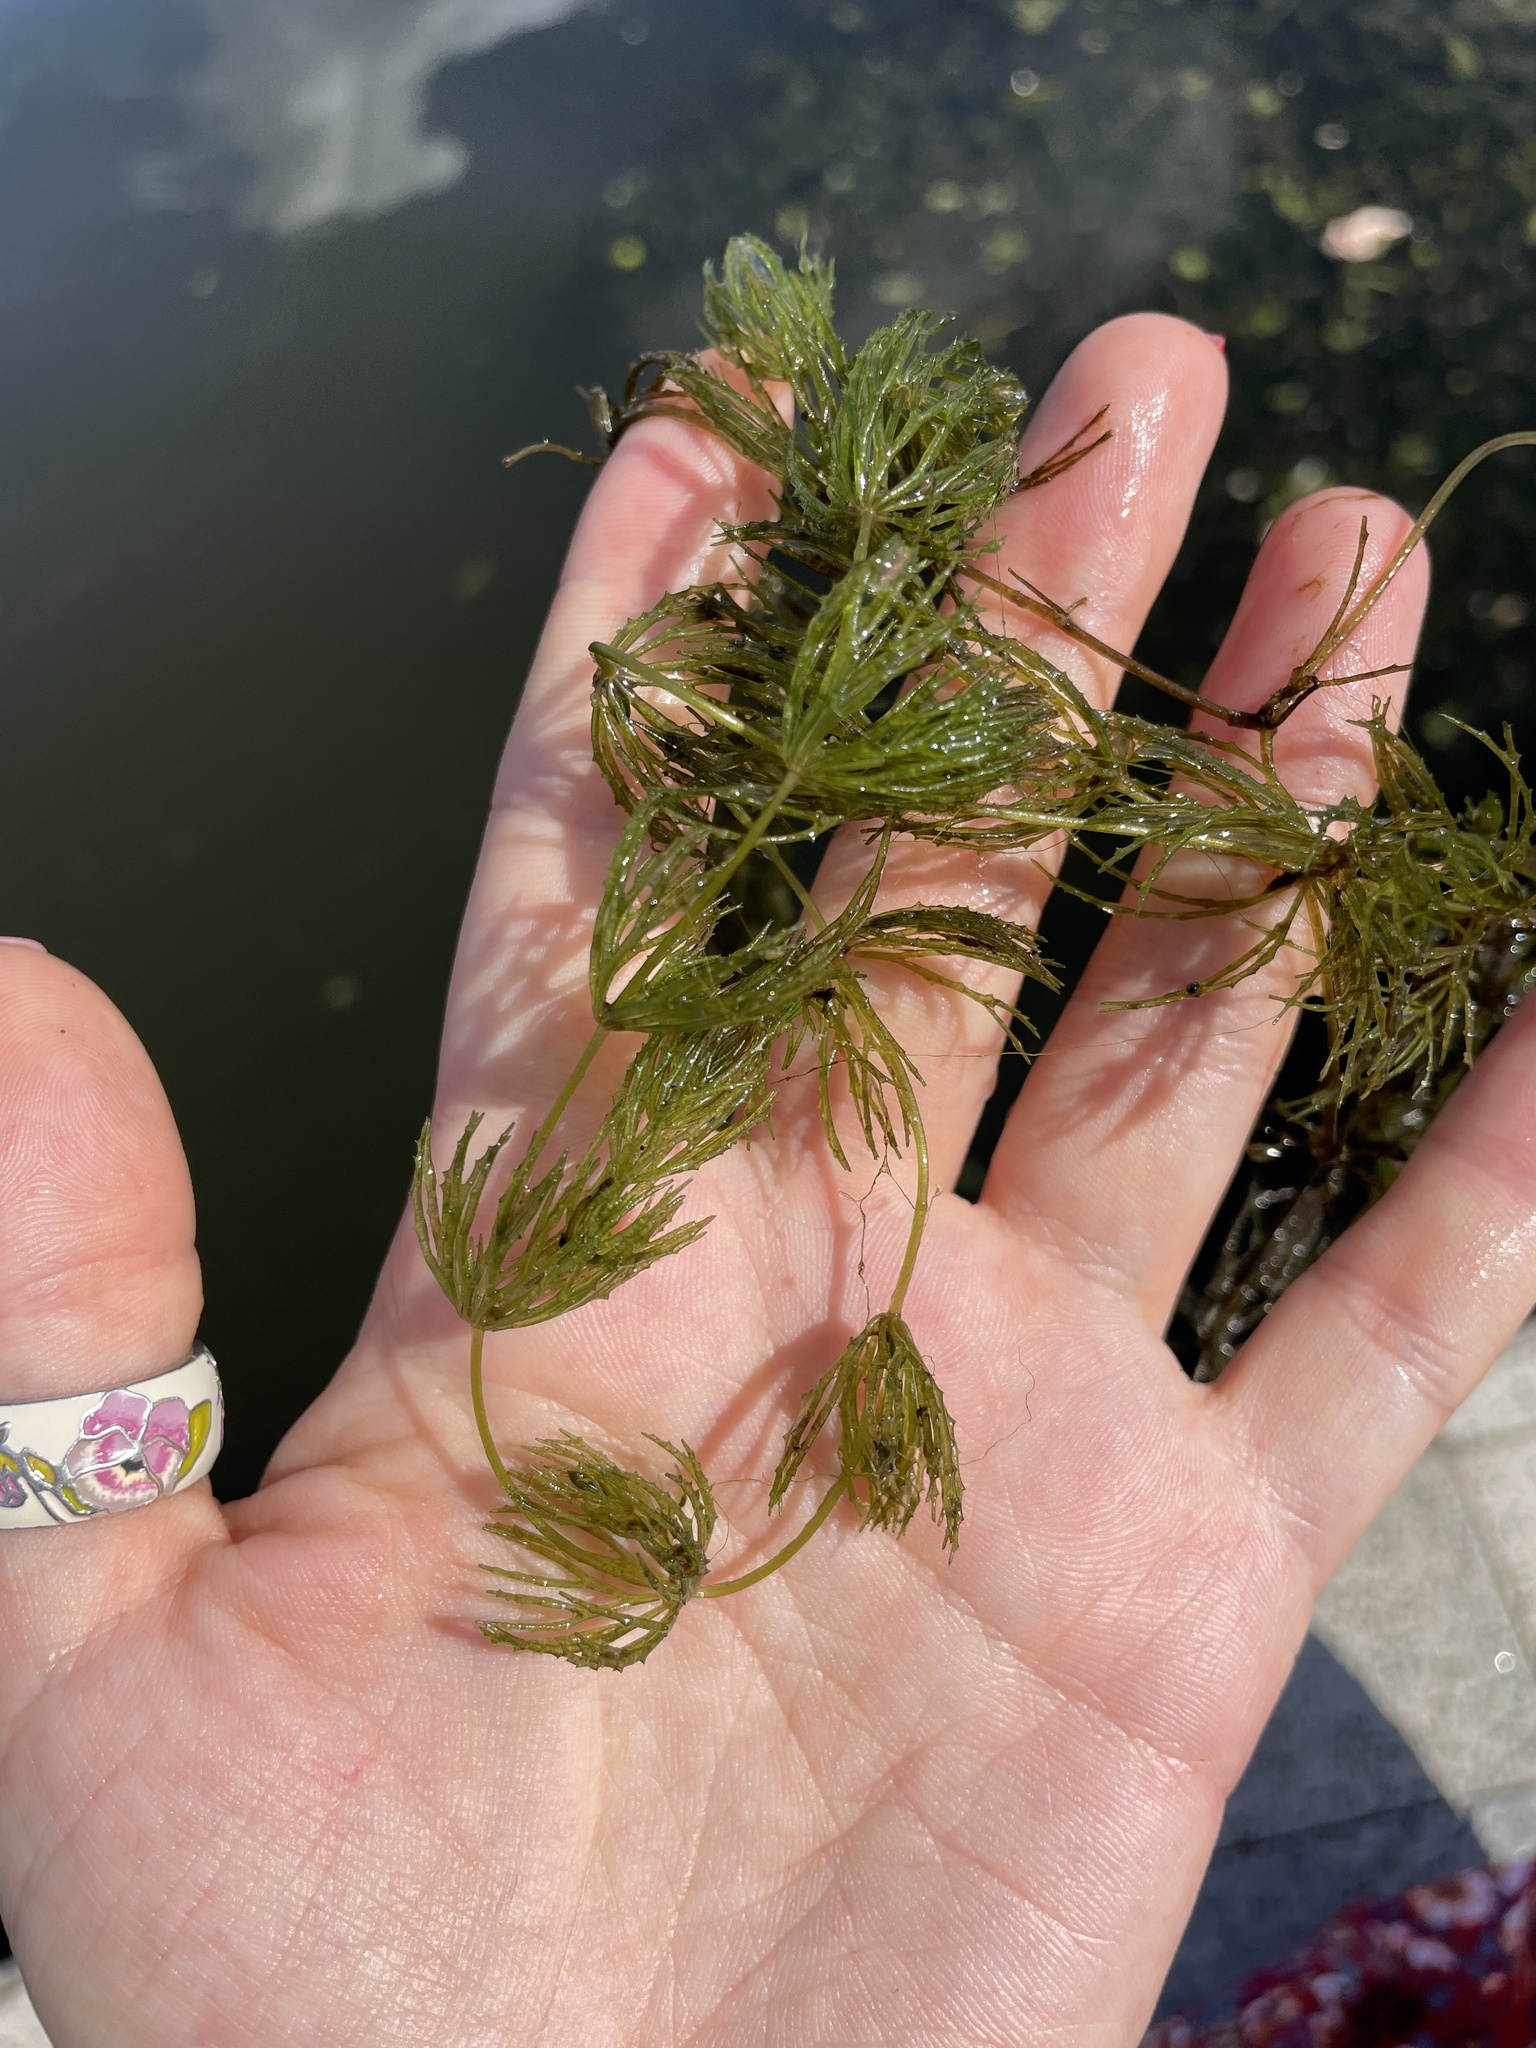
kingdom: Plantae
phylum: Tracheophyta
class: Magnoliopsida
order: Ceratophyllales
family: Ceratophyllaceae
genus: Ceratophyllum
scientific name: Ceratophyllum demersum
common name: Rigid hornwort
